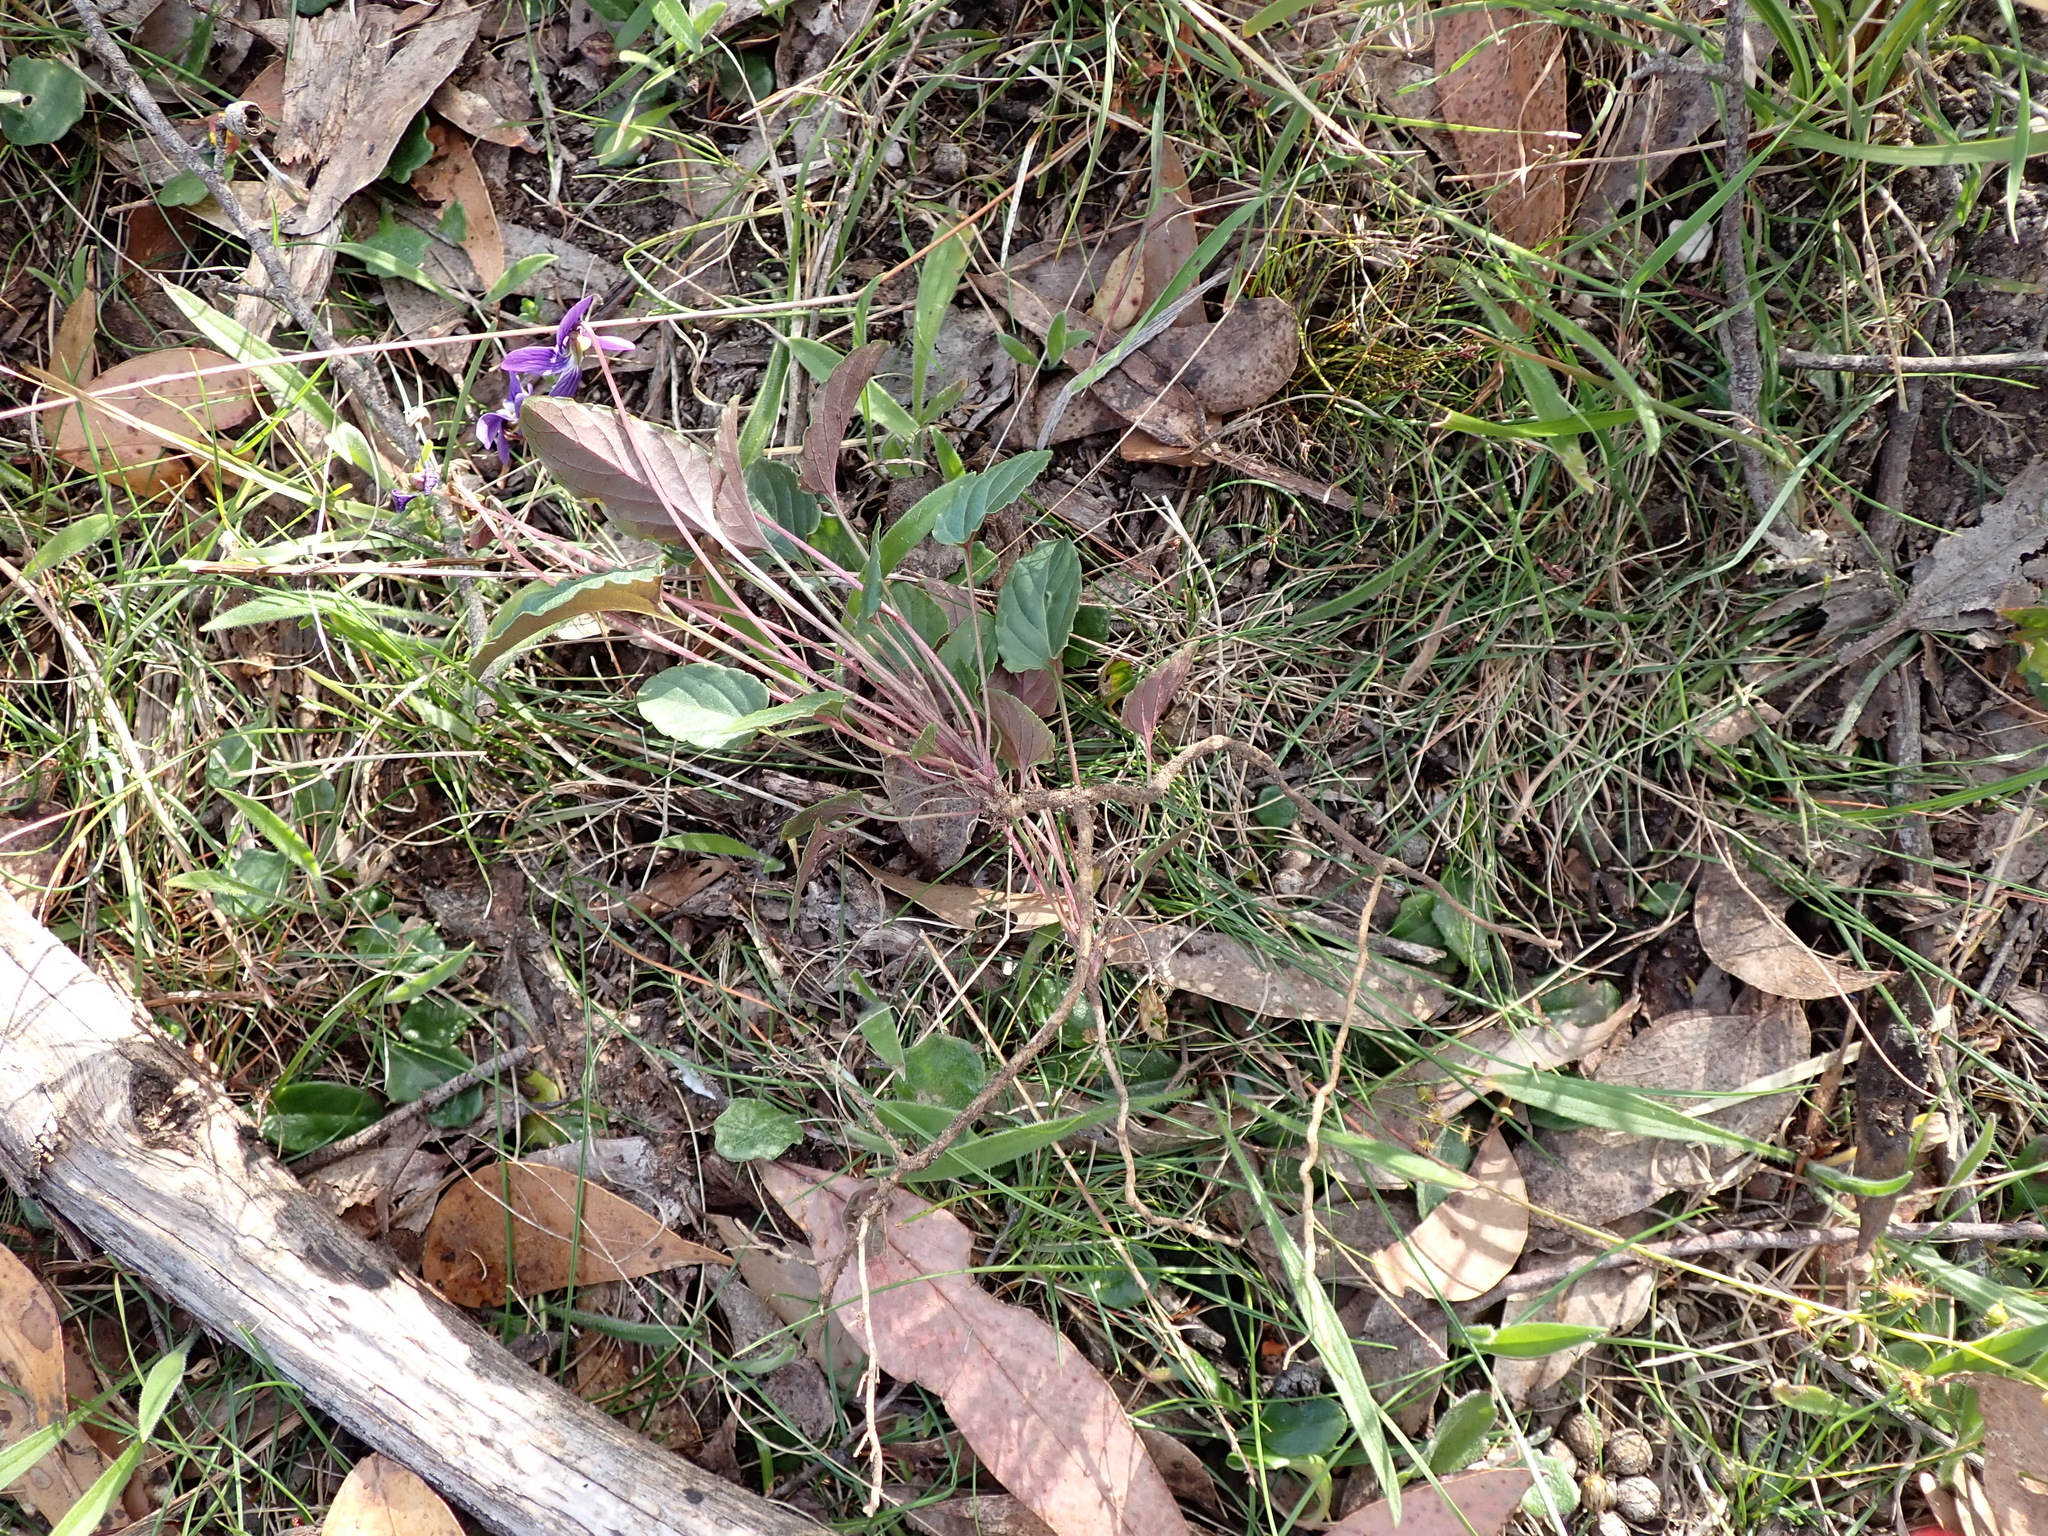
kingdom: Plantae
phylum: Tracheophyta
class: Magnoliopsida
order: Malpighiales
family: Violaceae
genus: Viola
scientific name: Viola betonicifolia
